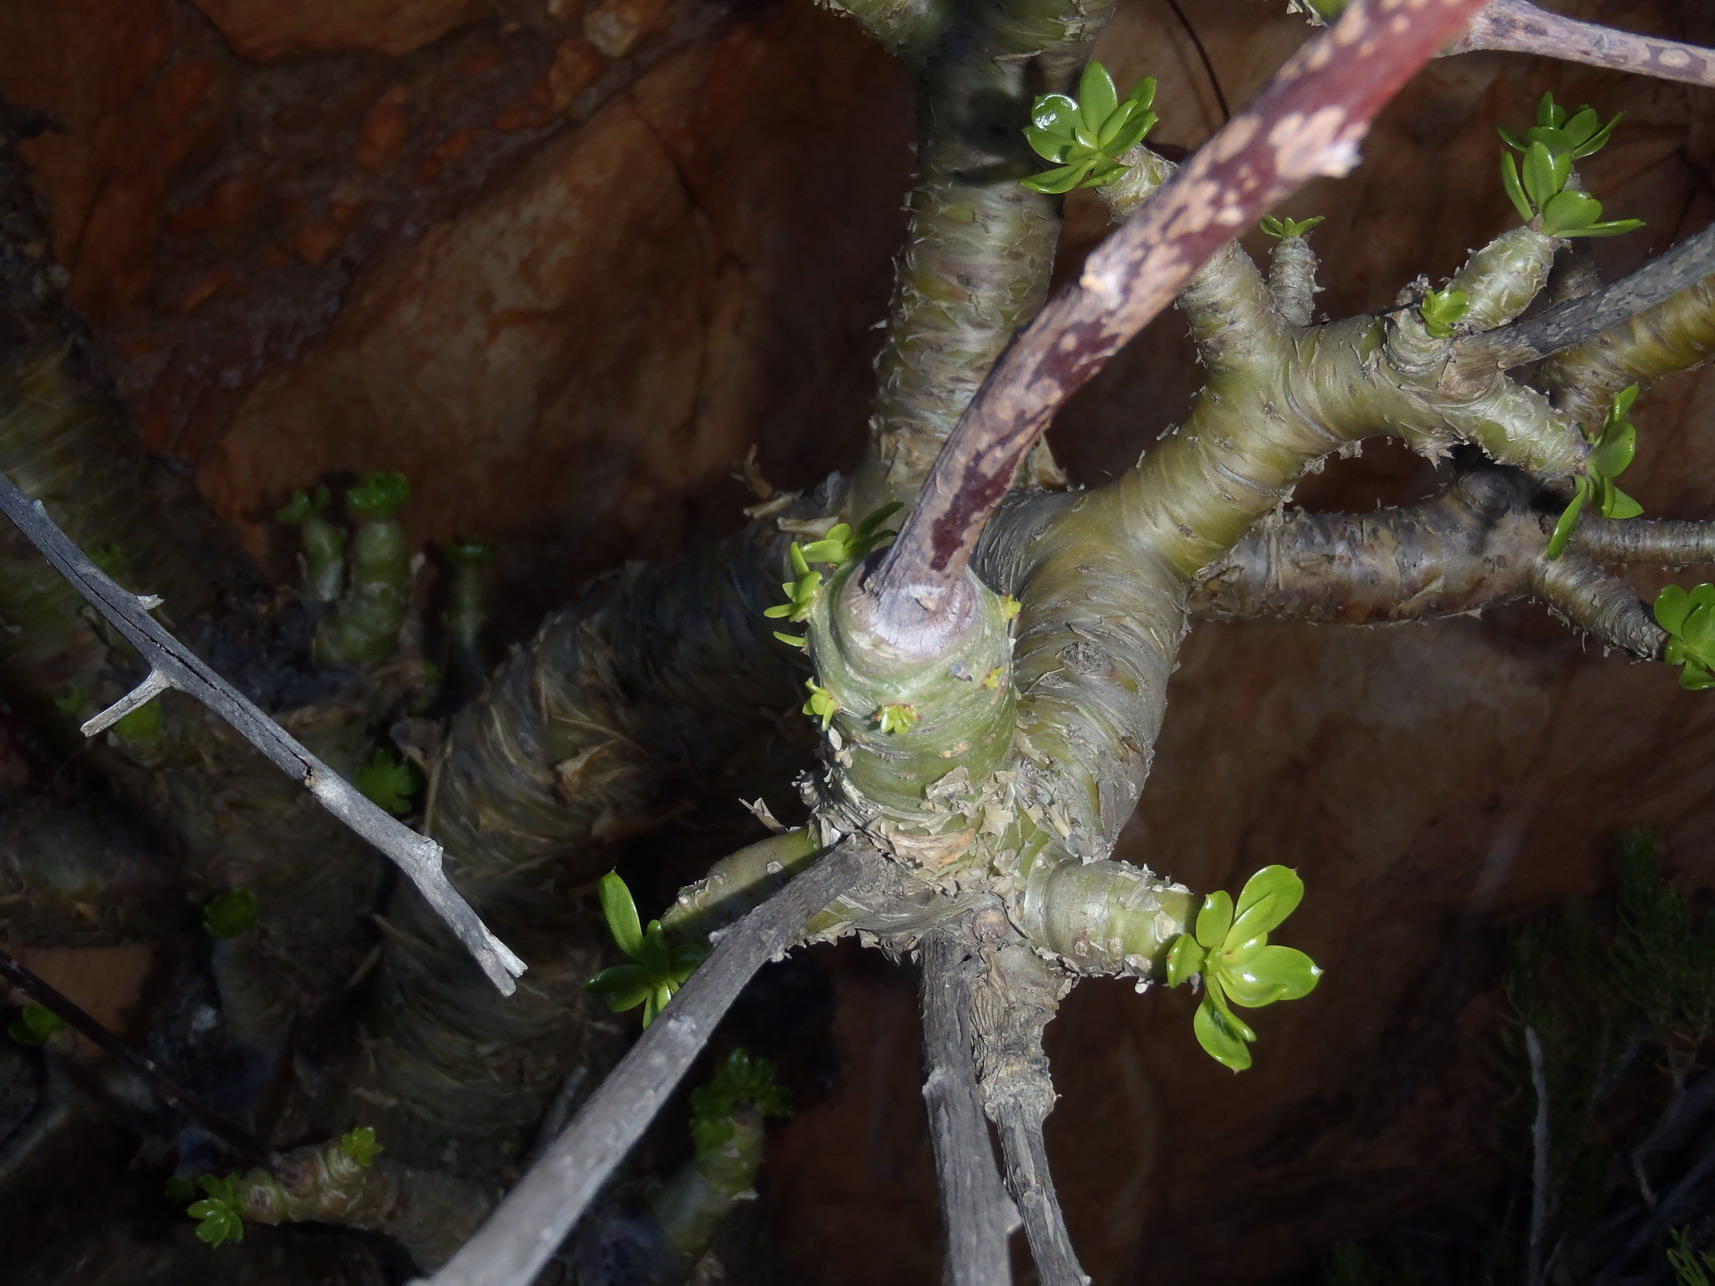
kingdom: Plantae
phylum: Tracheophyta
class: Magnoliopsida
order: Saxifragales
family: Crassulaceae
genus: Tylecodon
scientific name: Tylecodon paniculatus
